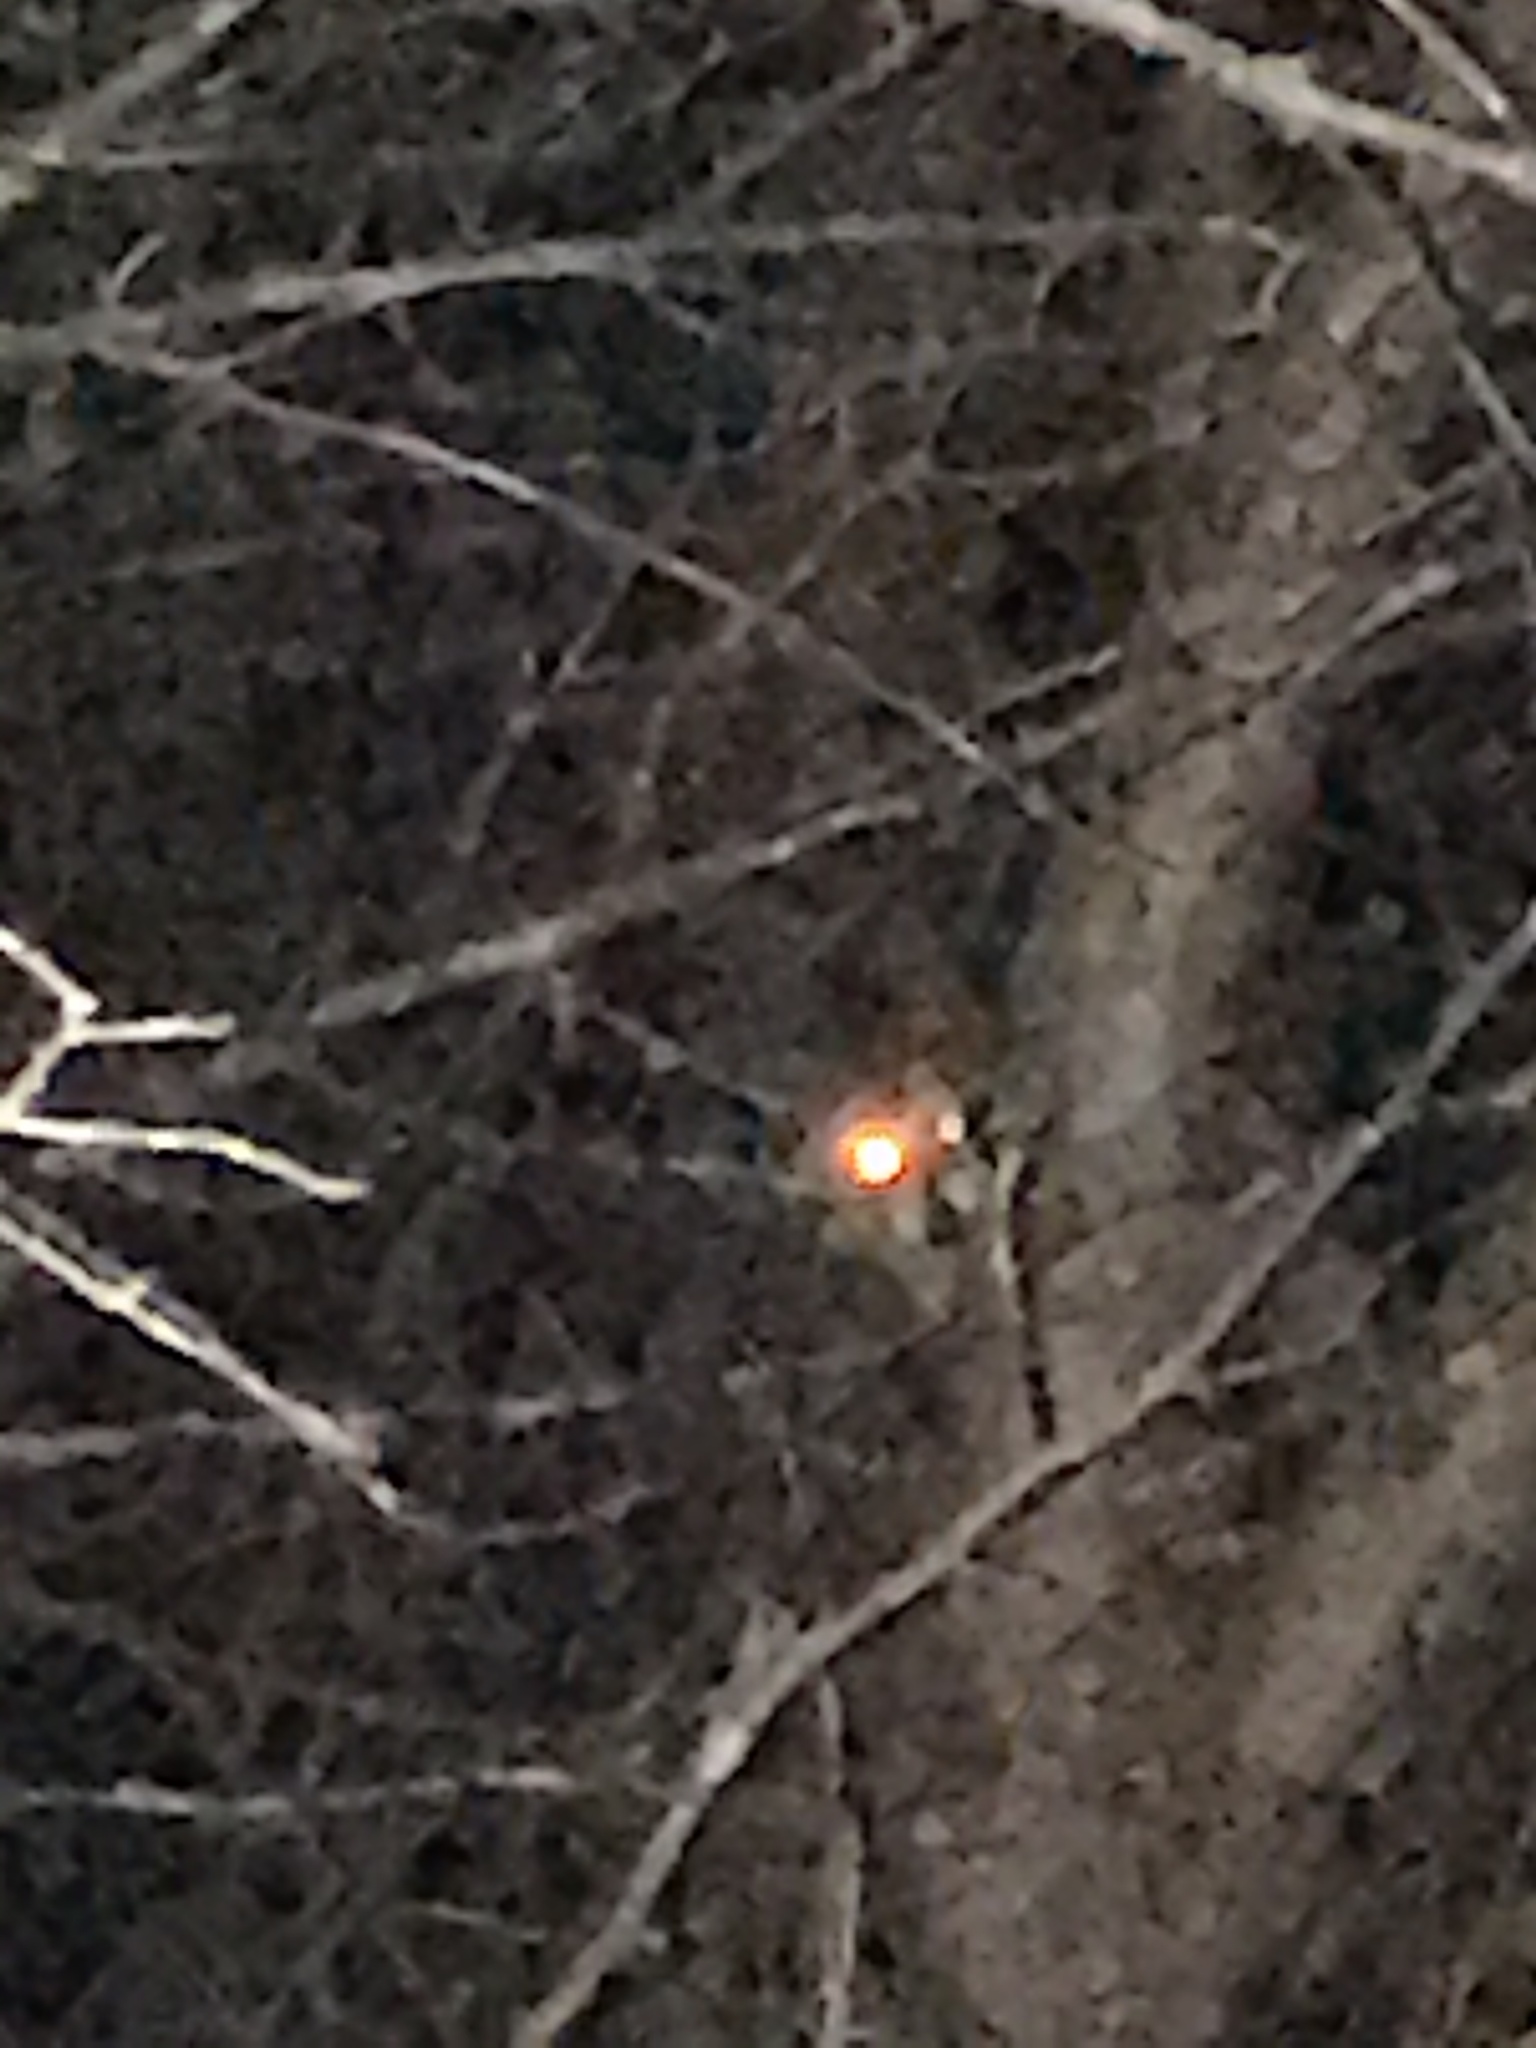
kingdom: Animalia
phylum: Chordata
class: Mammalia
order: Carnivora
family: Procyonidae
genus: Procyon
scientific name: Procyon lotor
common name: Raccoon
